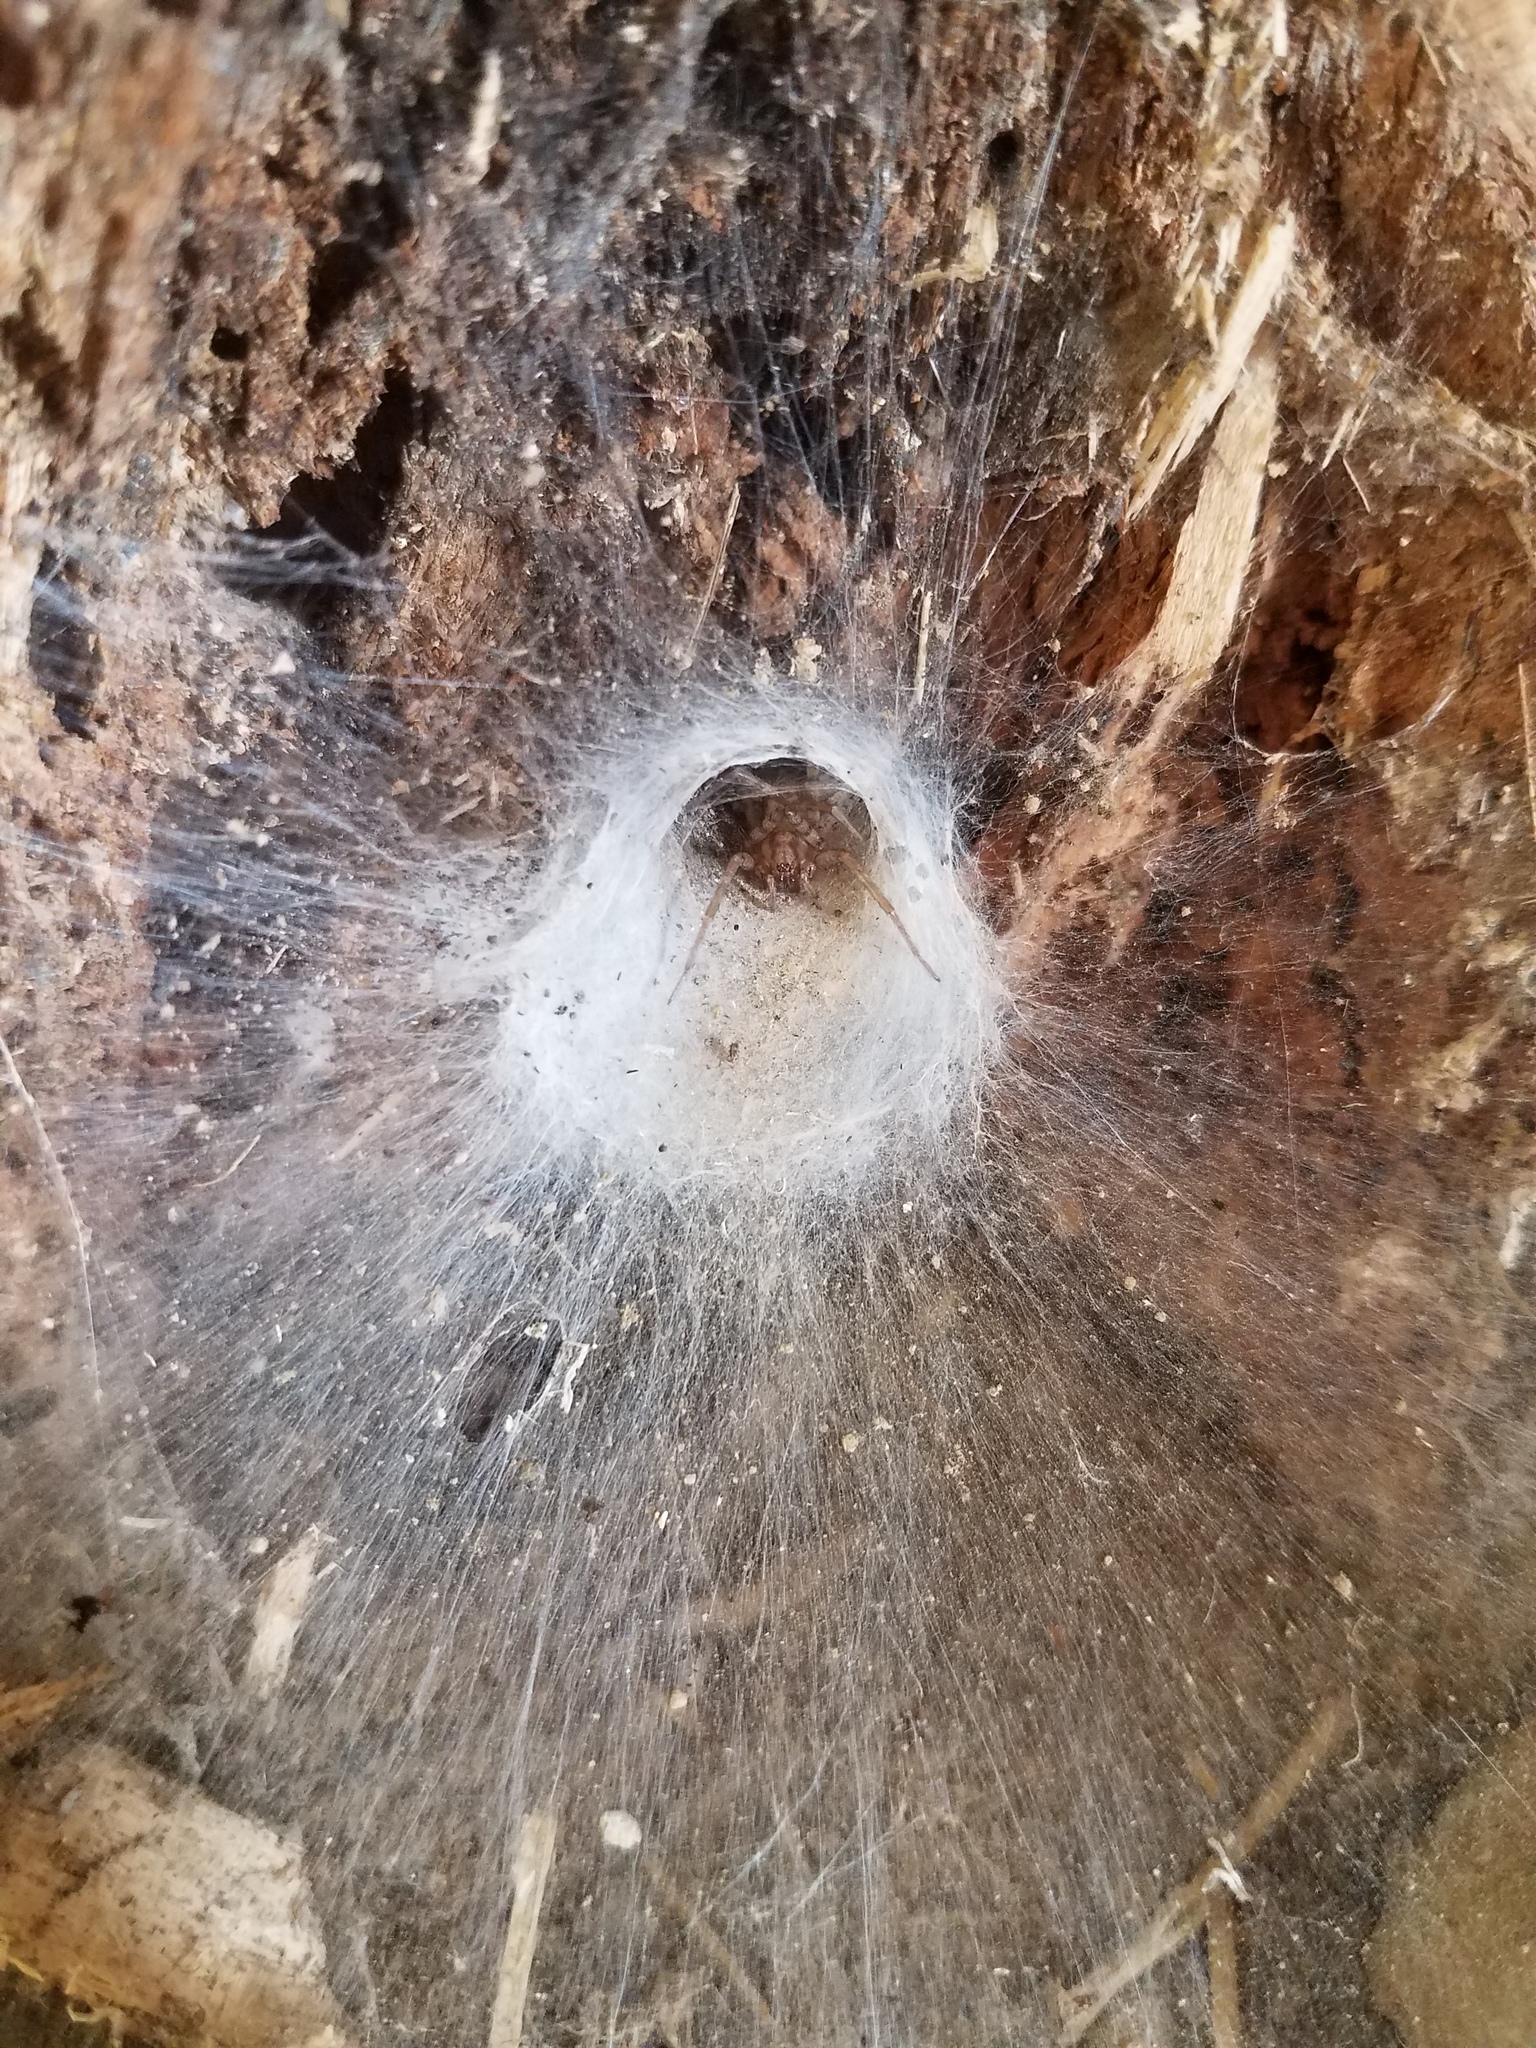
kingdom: Animalia
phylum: Arthropoda
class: Arachnida
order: Araneae
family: Agelenidae
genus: Tegenaria
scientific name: Tegenaria domestica
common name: Barn funnel weaver
